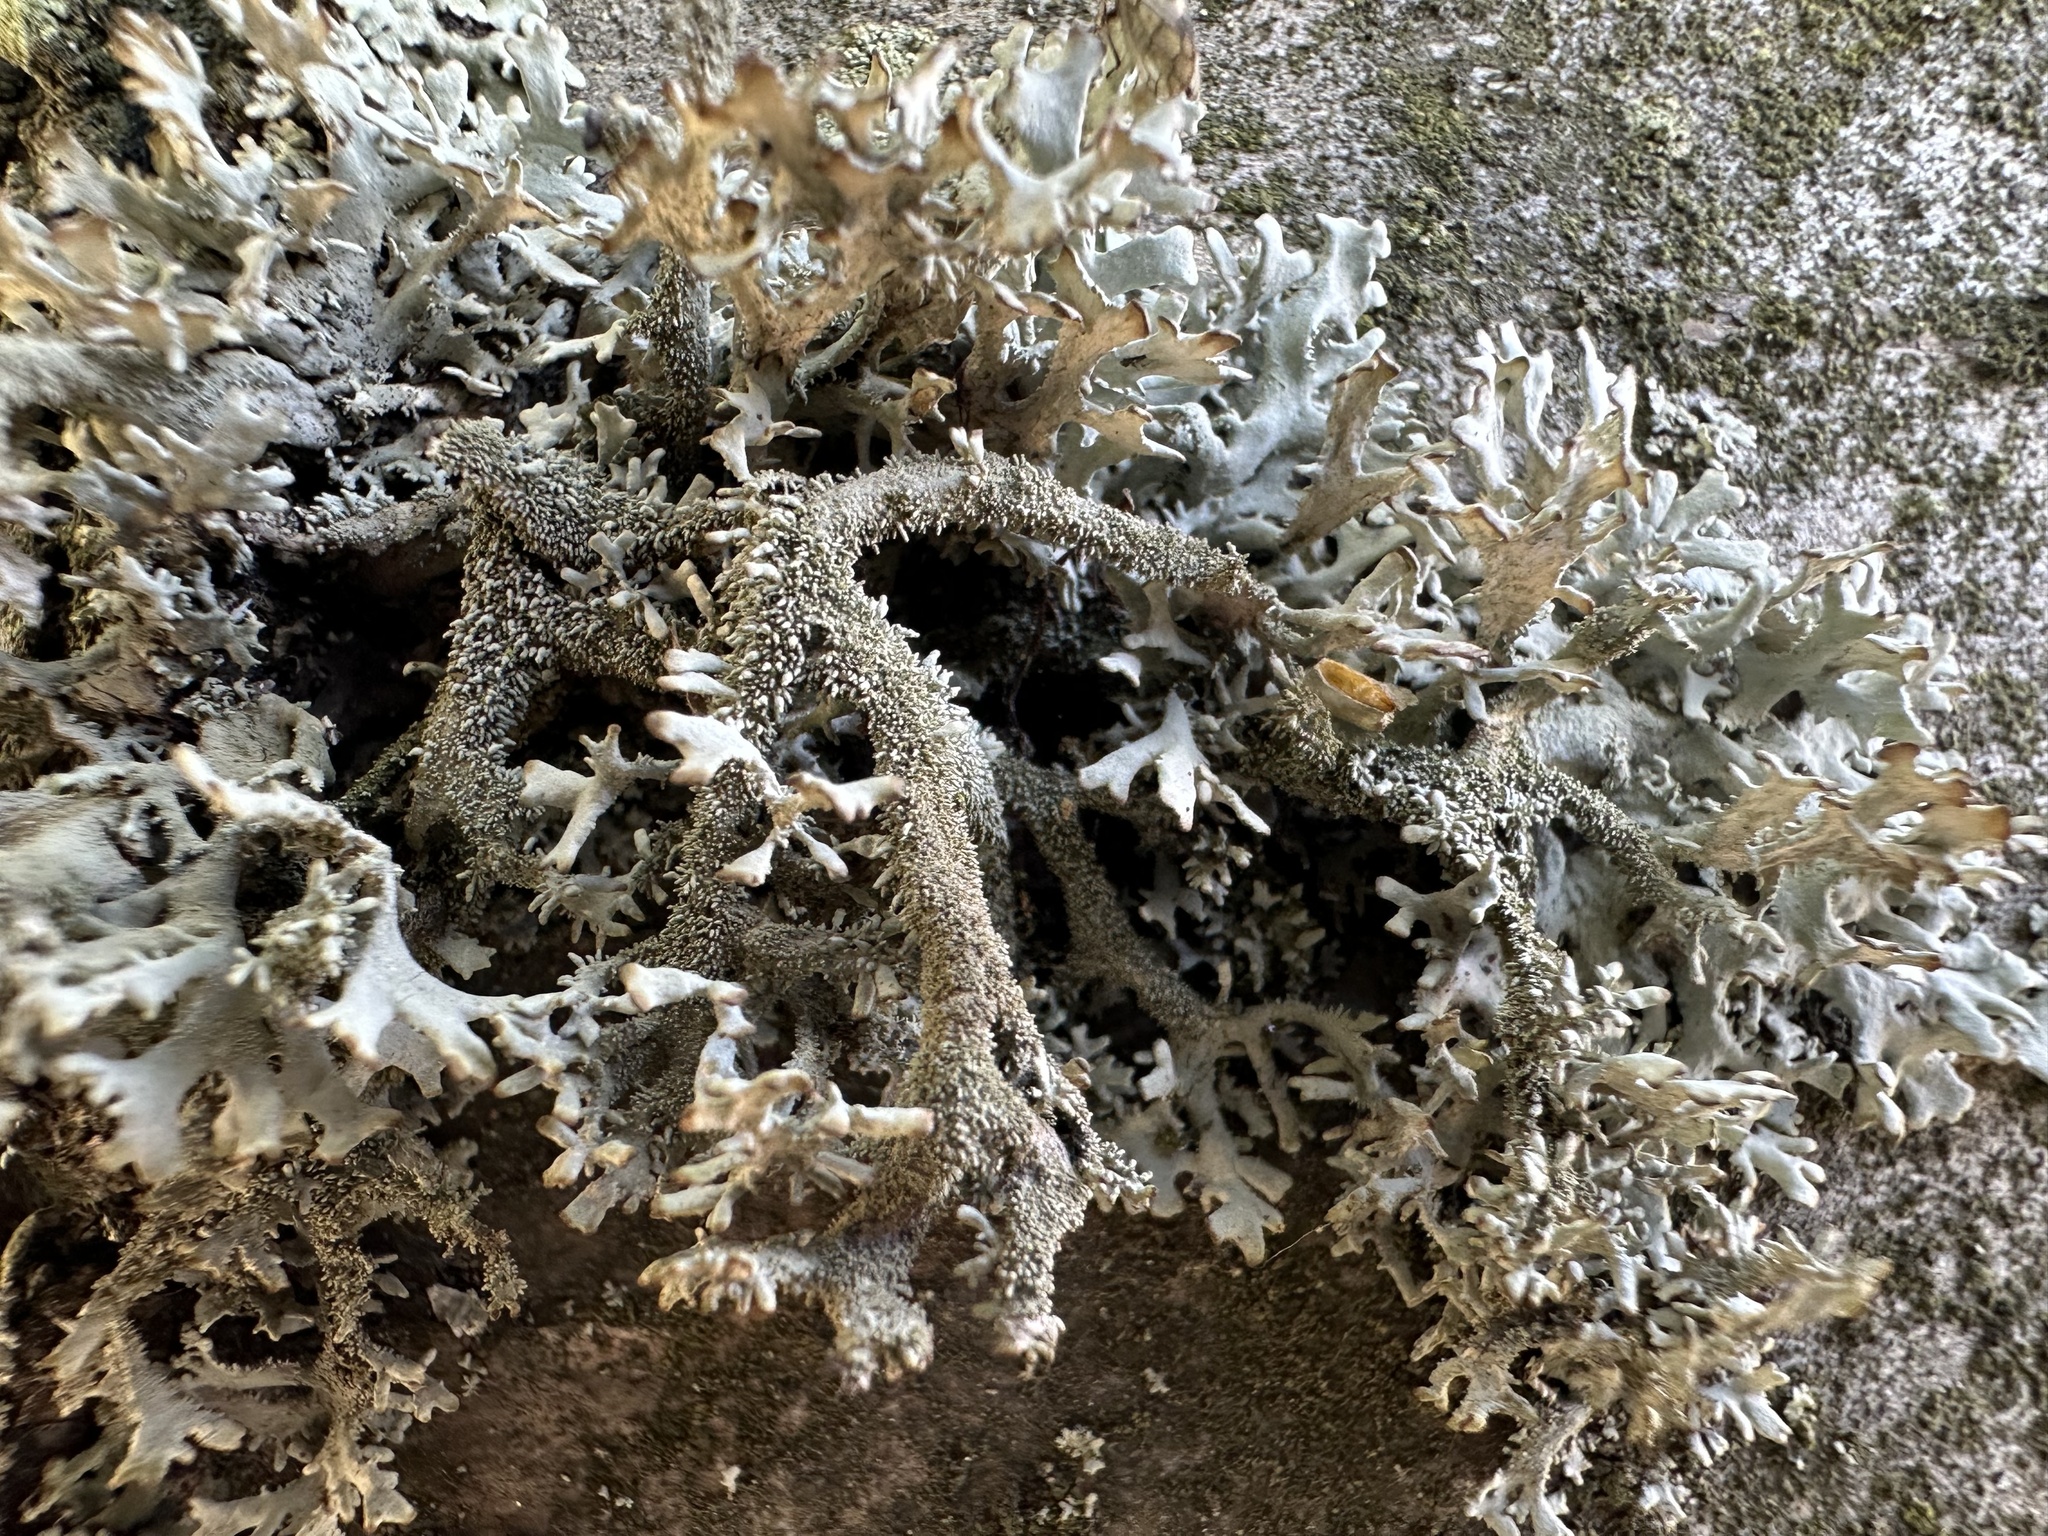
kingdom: Fungi
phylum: Ascomycota
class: Lecanoromycetes
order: Lecanorales
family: Parmeliaceae
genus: Pseudevernia
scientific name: Pseudevernia furfuracea
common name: Tree moss
